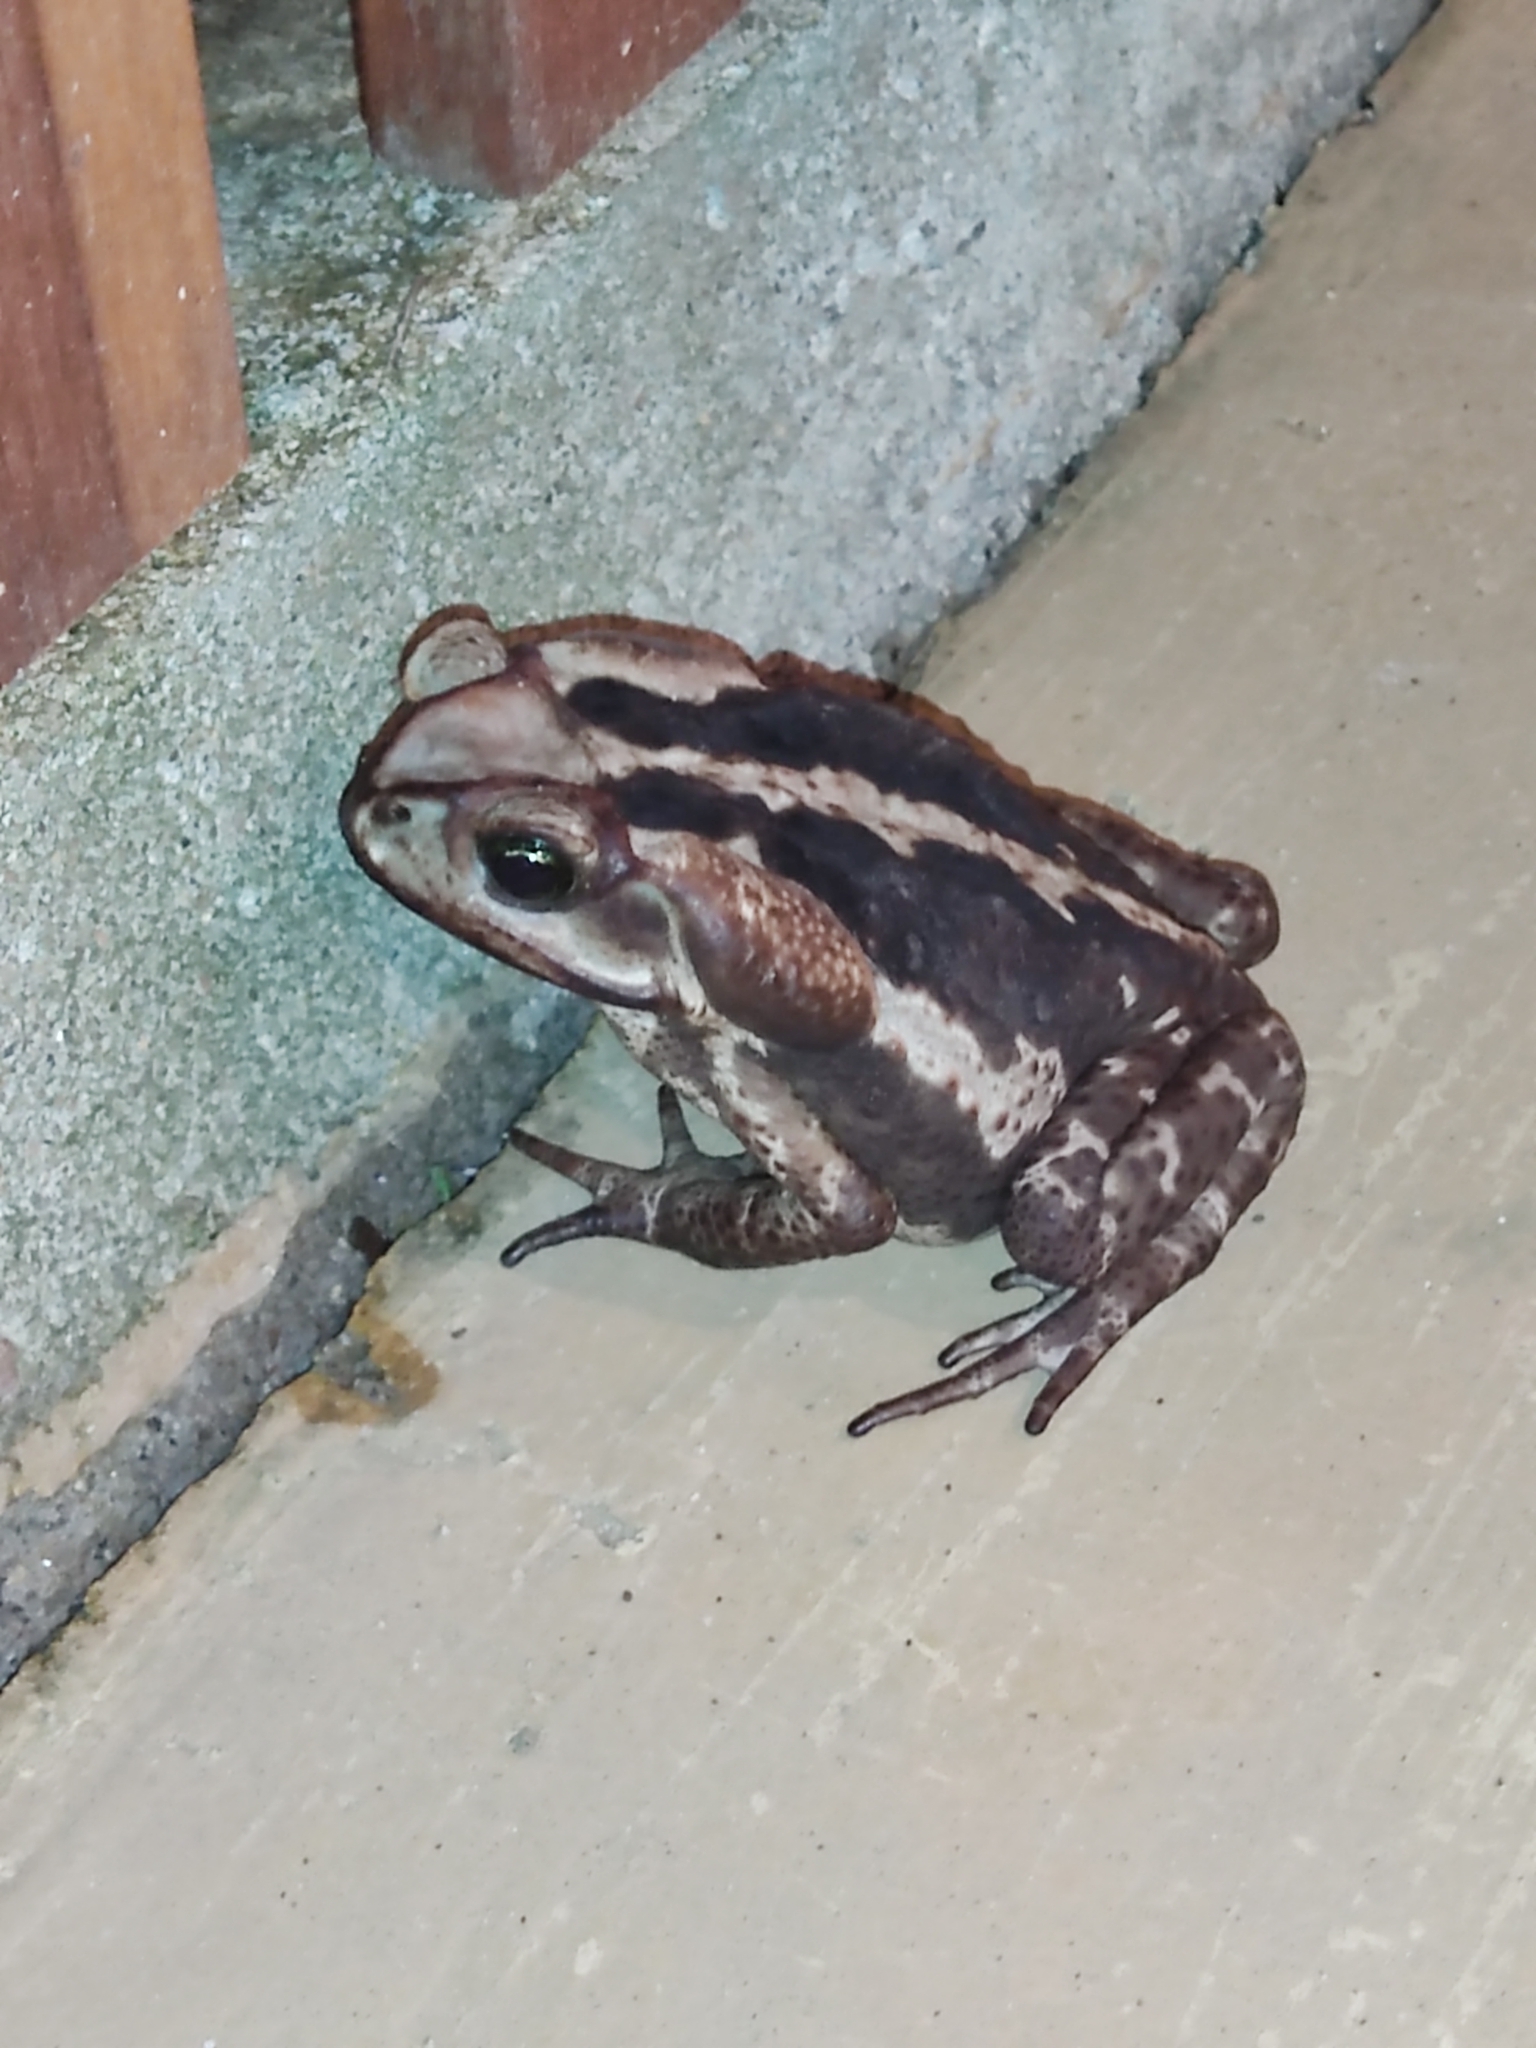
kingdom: Animalia
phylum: Chordata
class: Amphibia
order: Anura
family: Bufonidae
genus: Rhinella
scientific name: Rhinella icterica
